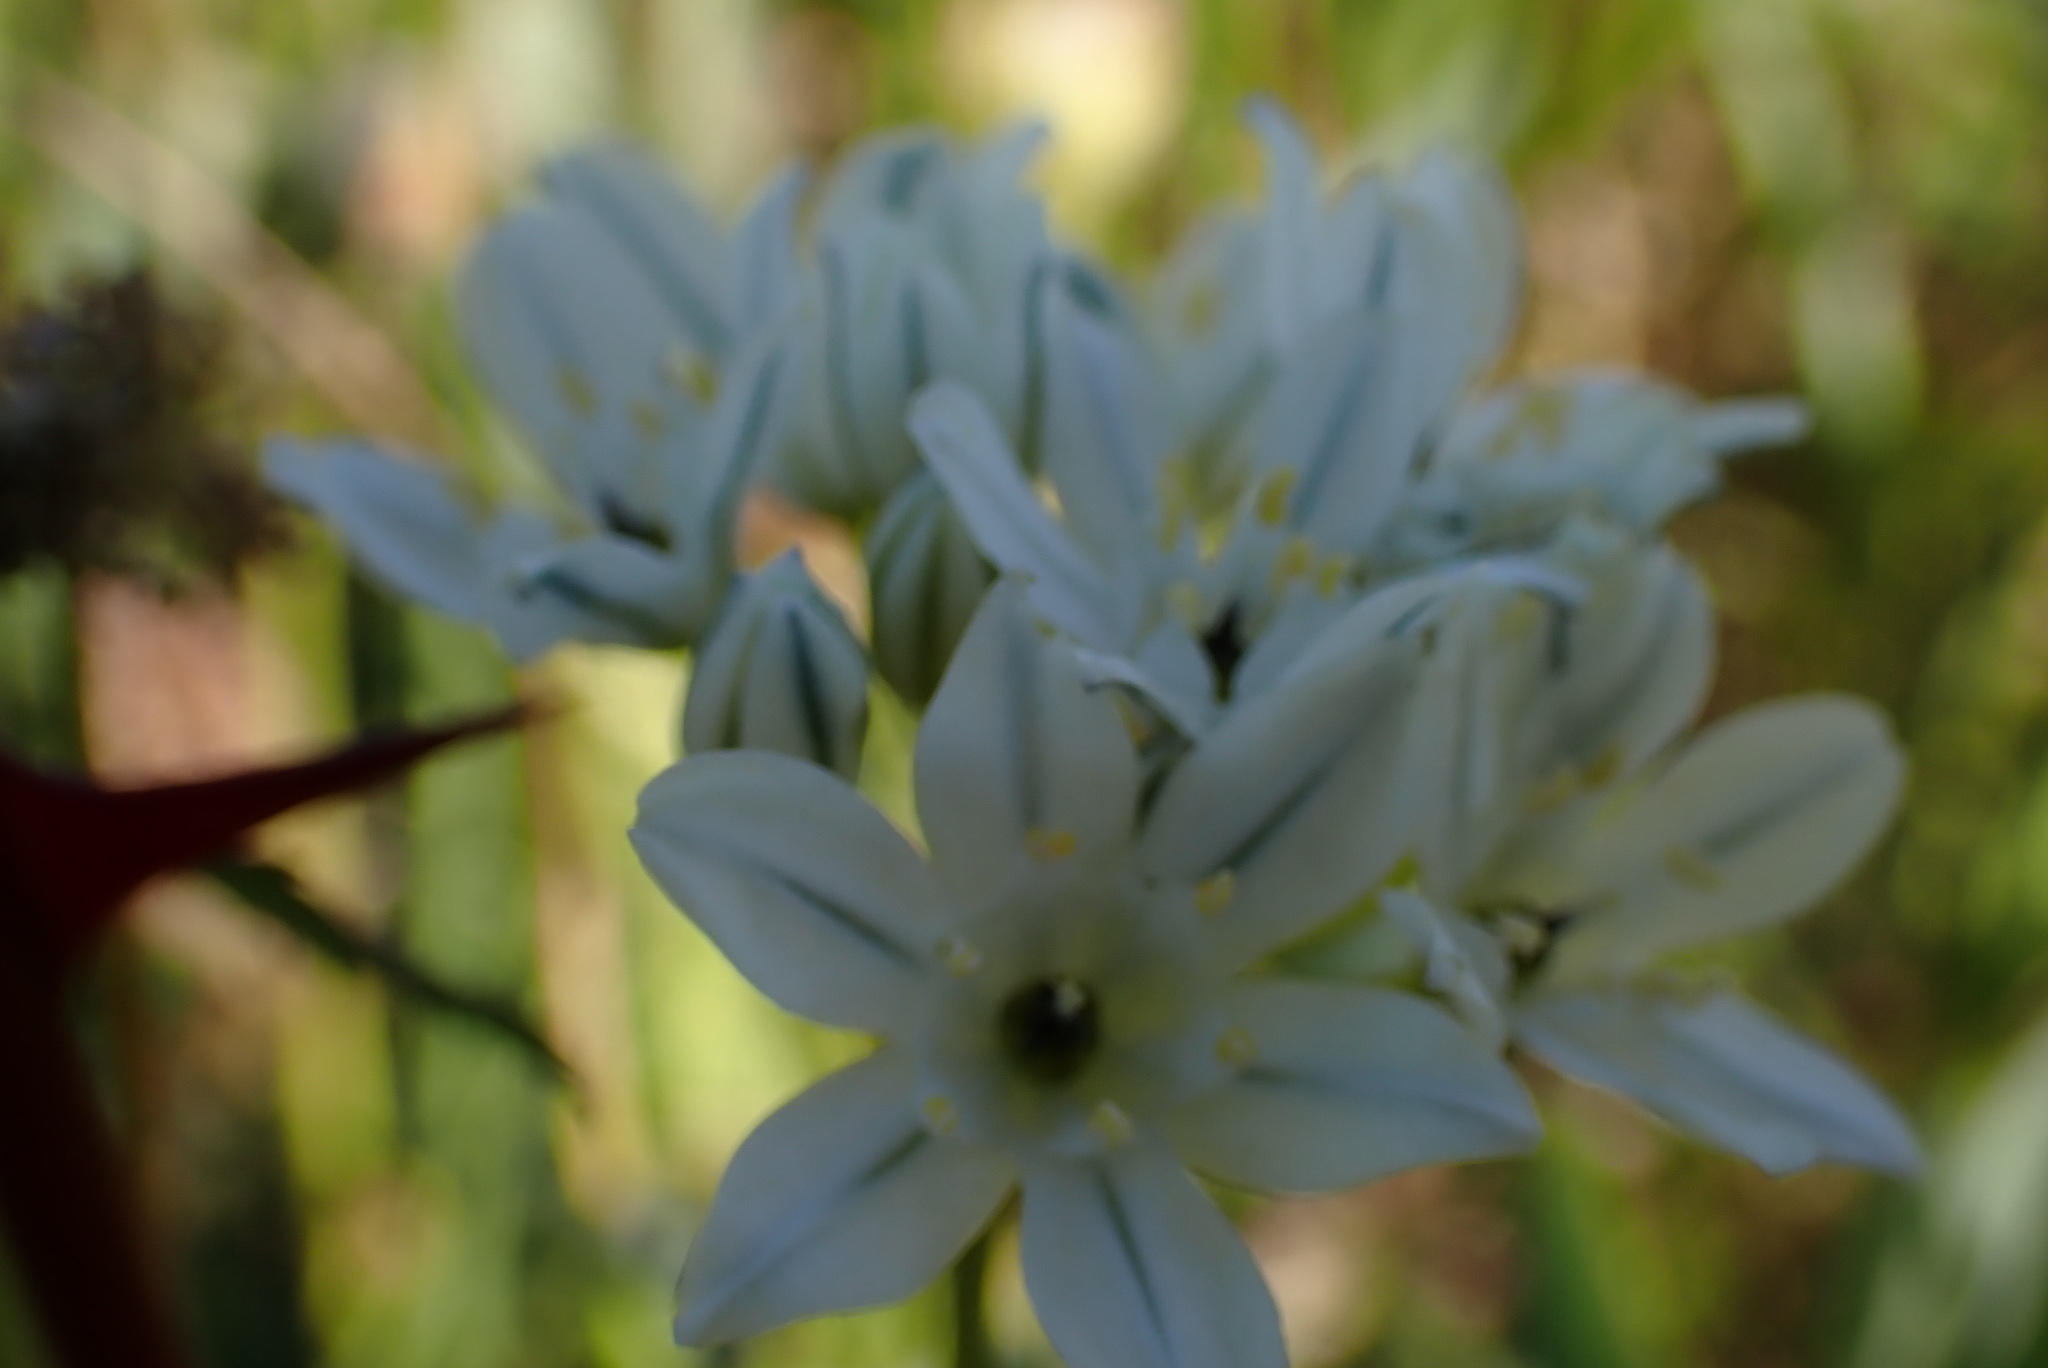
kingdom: Plantae
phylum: Tracheophyta
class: Liliopsida
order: Asparagales
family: Asparagaceae
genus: Triteleia
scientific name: Triteleia hyacinthina
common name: White brodiaea
